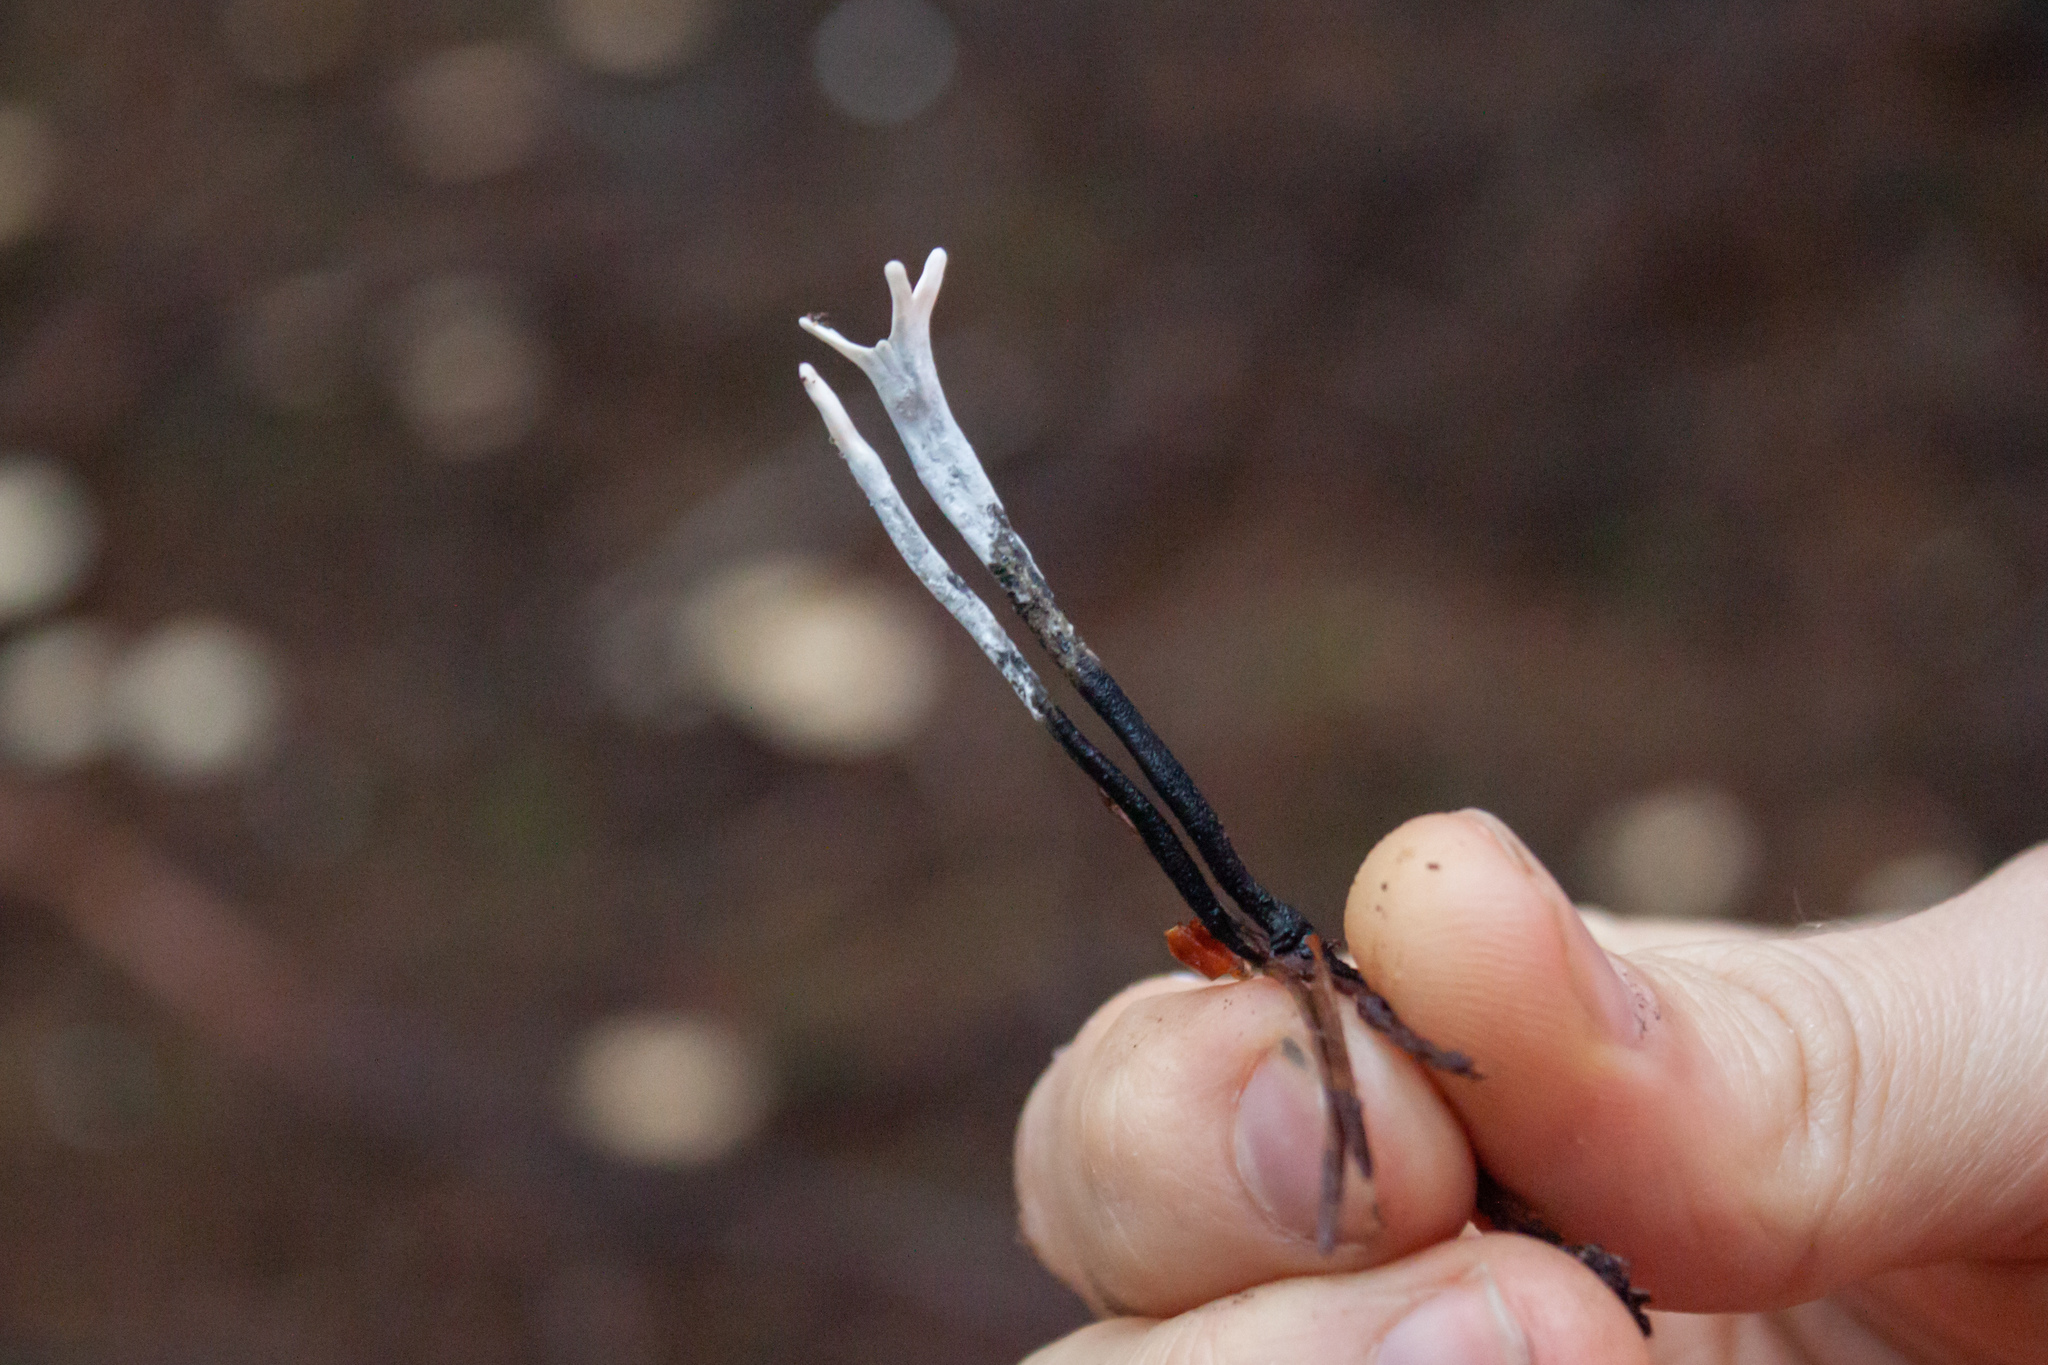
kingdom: Fungi
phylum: Ascomycota
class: Sordariomycetes
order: Xylariales
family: Xylariaceae
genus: Xylaria
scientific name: Xylaria hypoxylon
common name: Candle-snuff fungus
